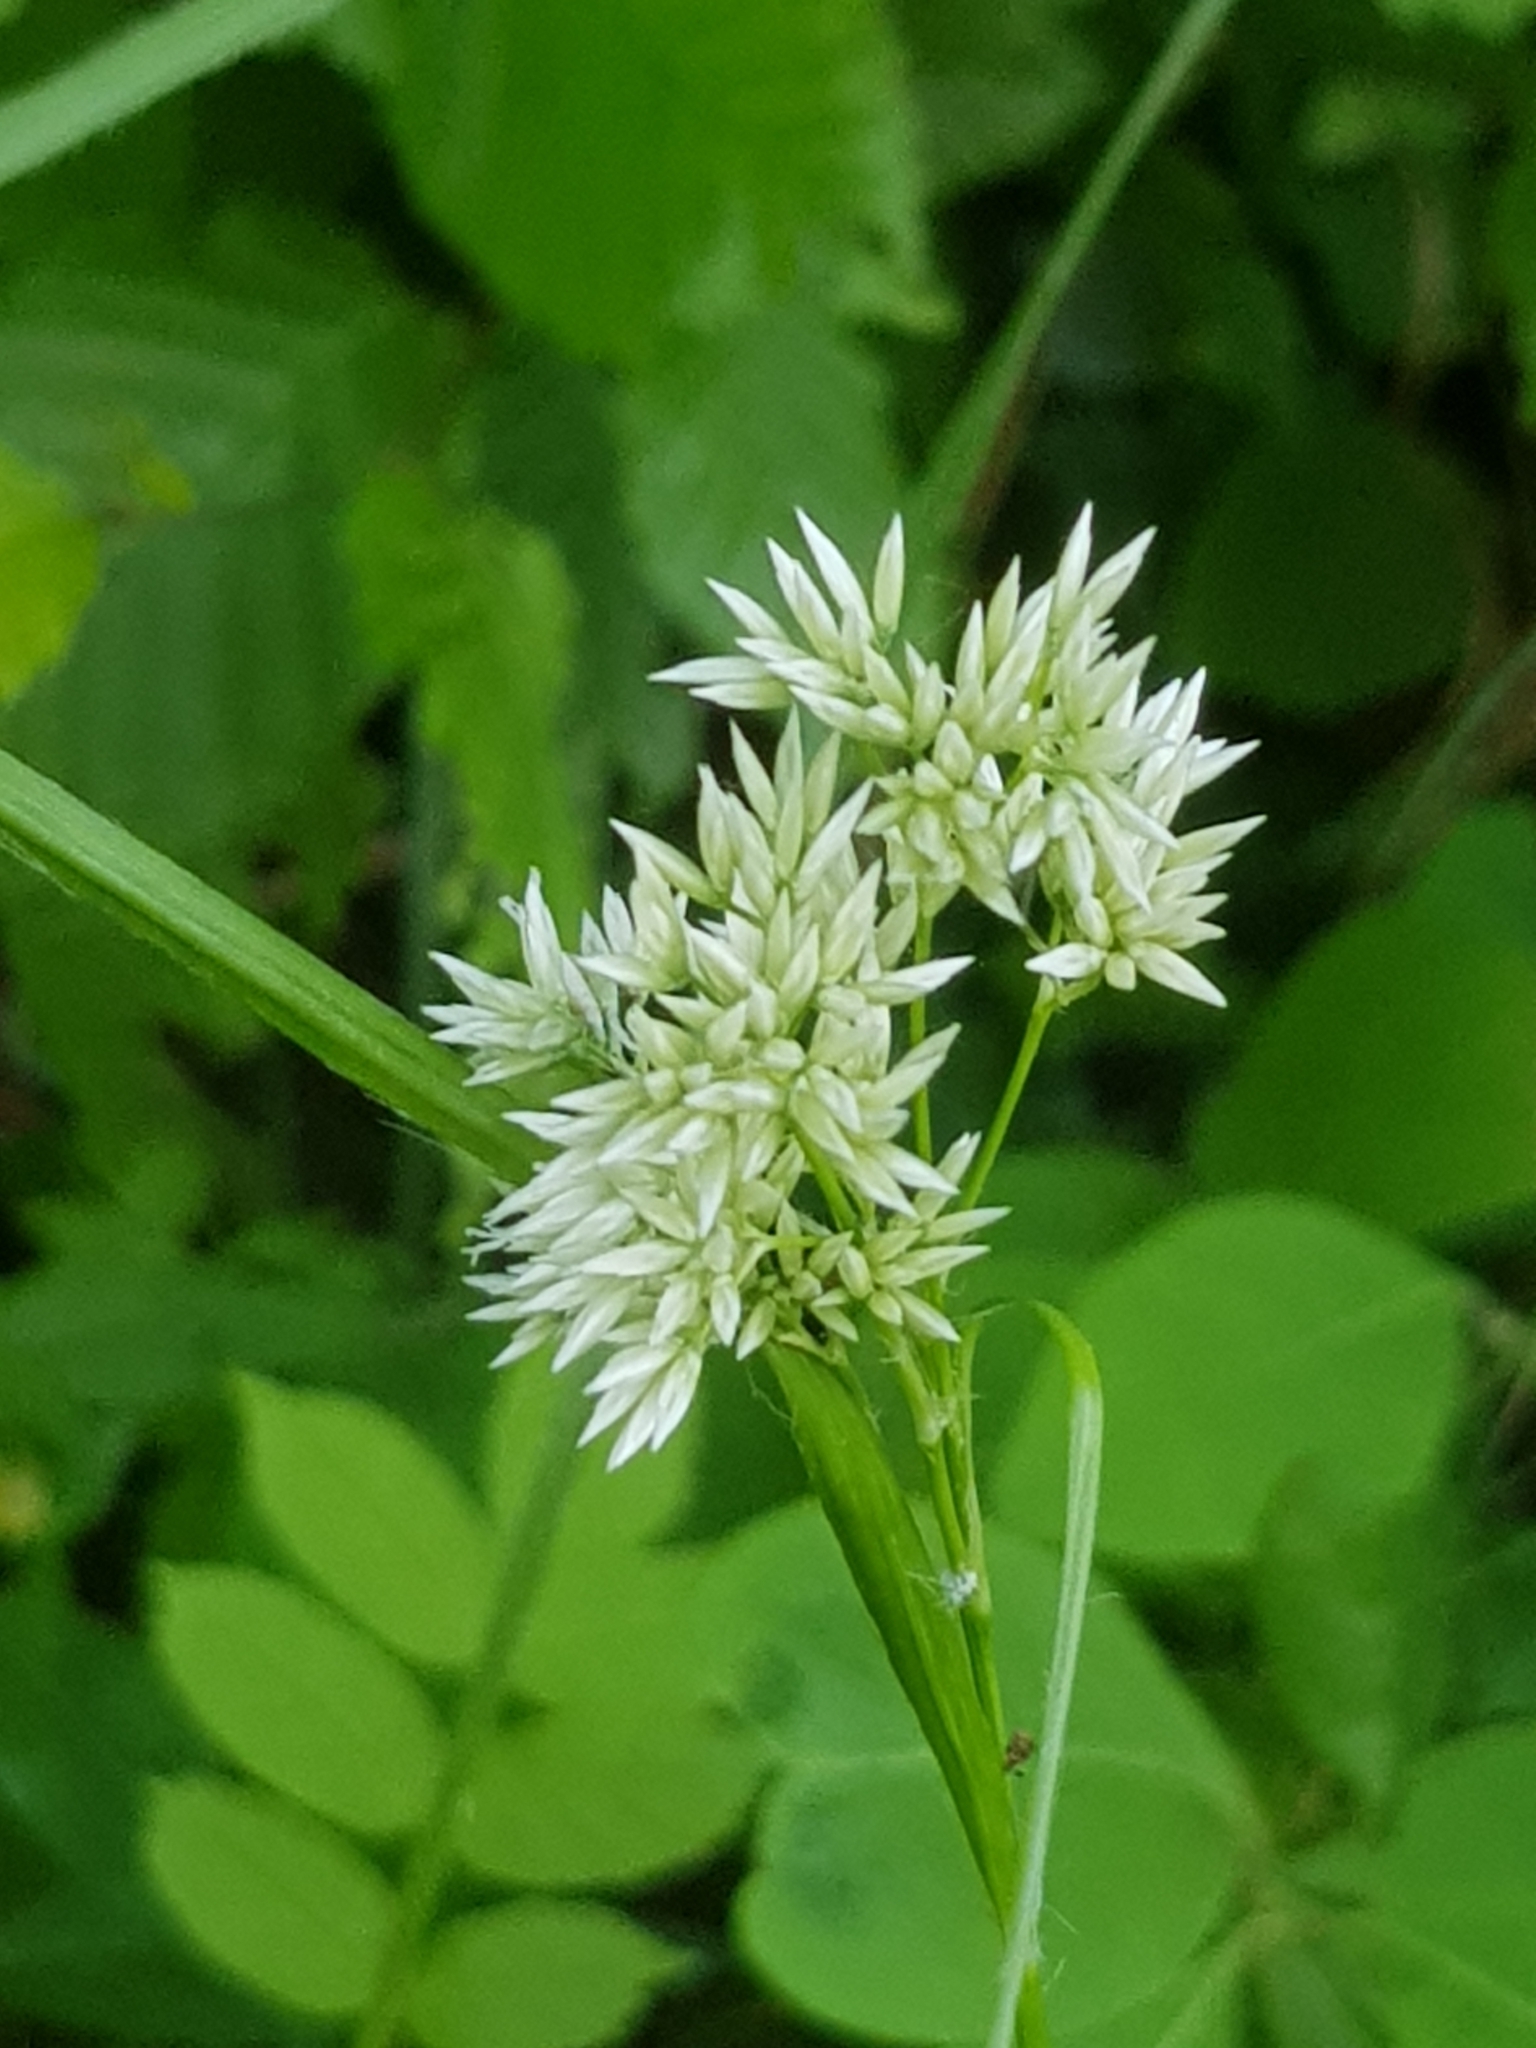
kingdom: Plantae
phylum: Tracheophyta
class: Liliopsida
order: Poales
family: Juncaceae
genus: Luzula
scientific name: Luzula nivea
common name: Snow-white wood-rush
